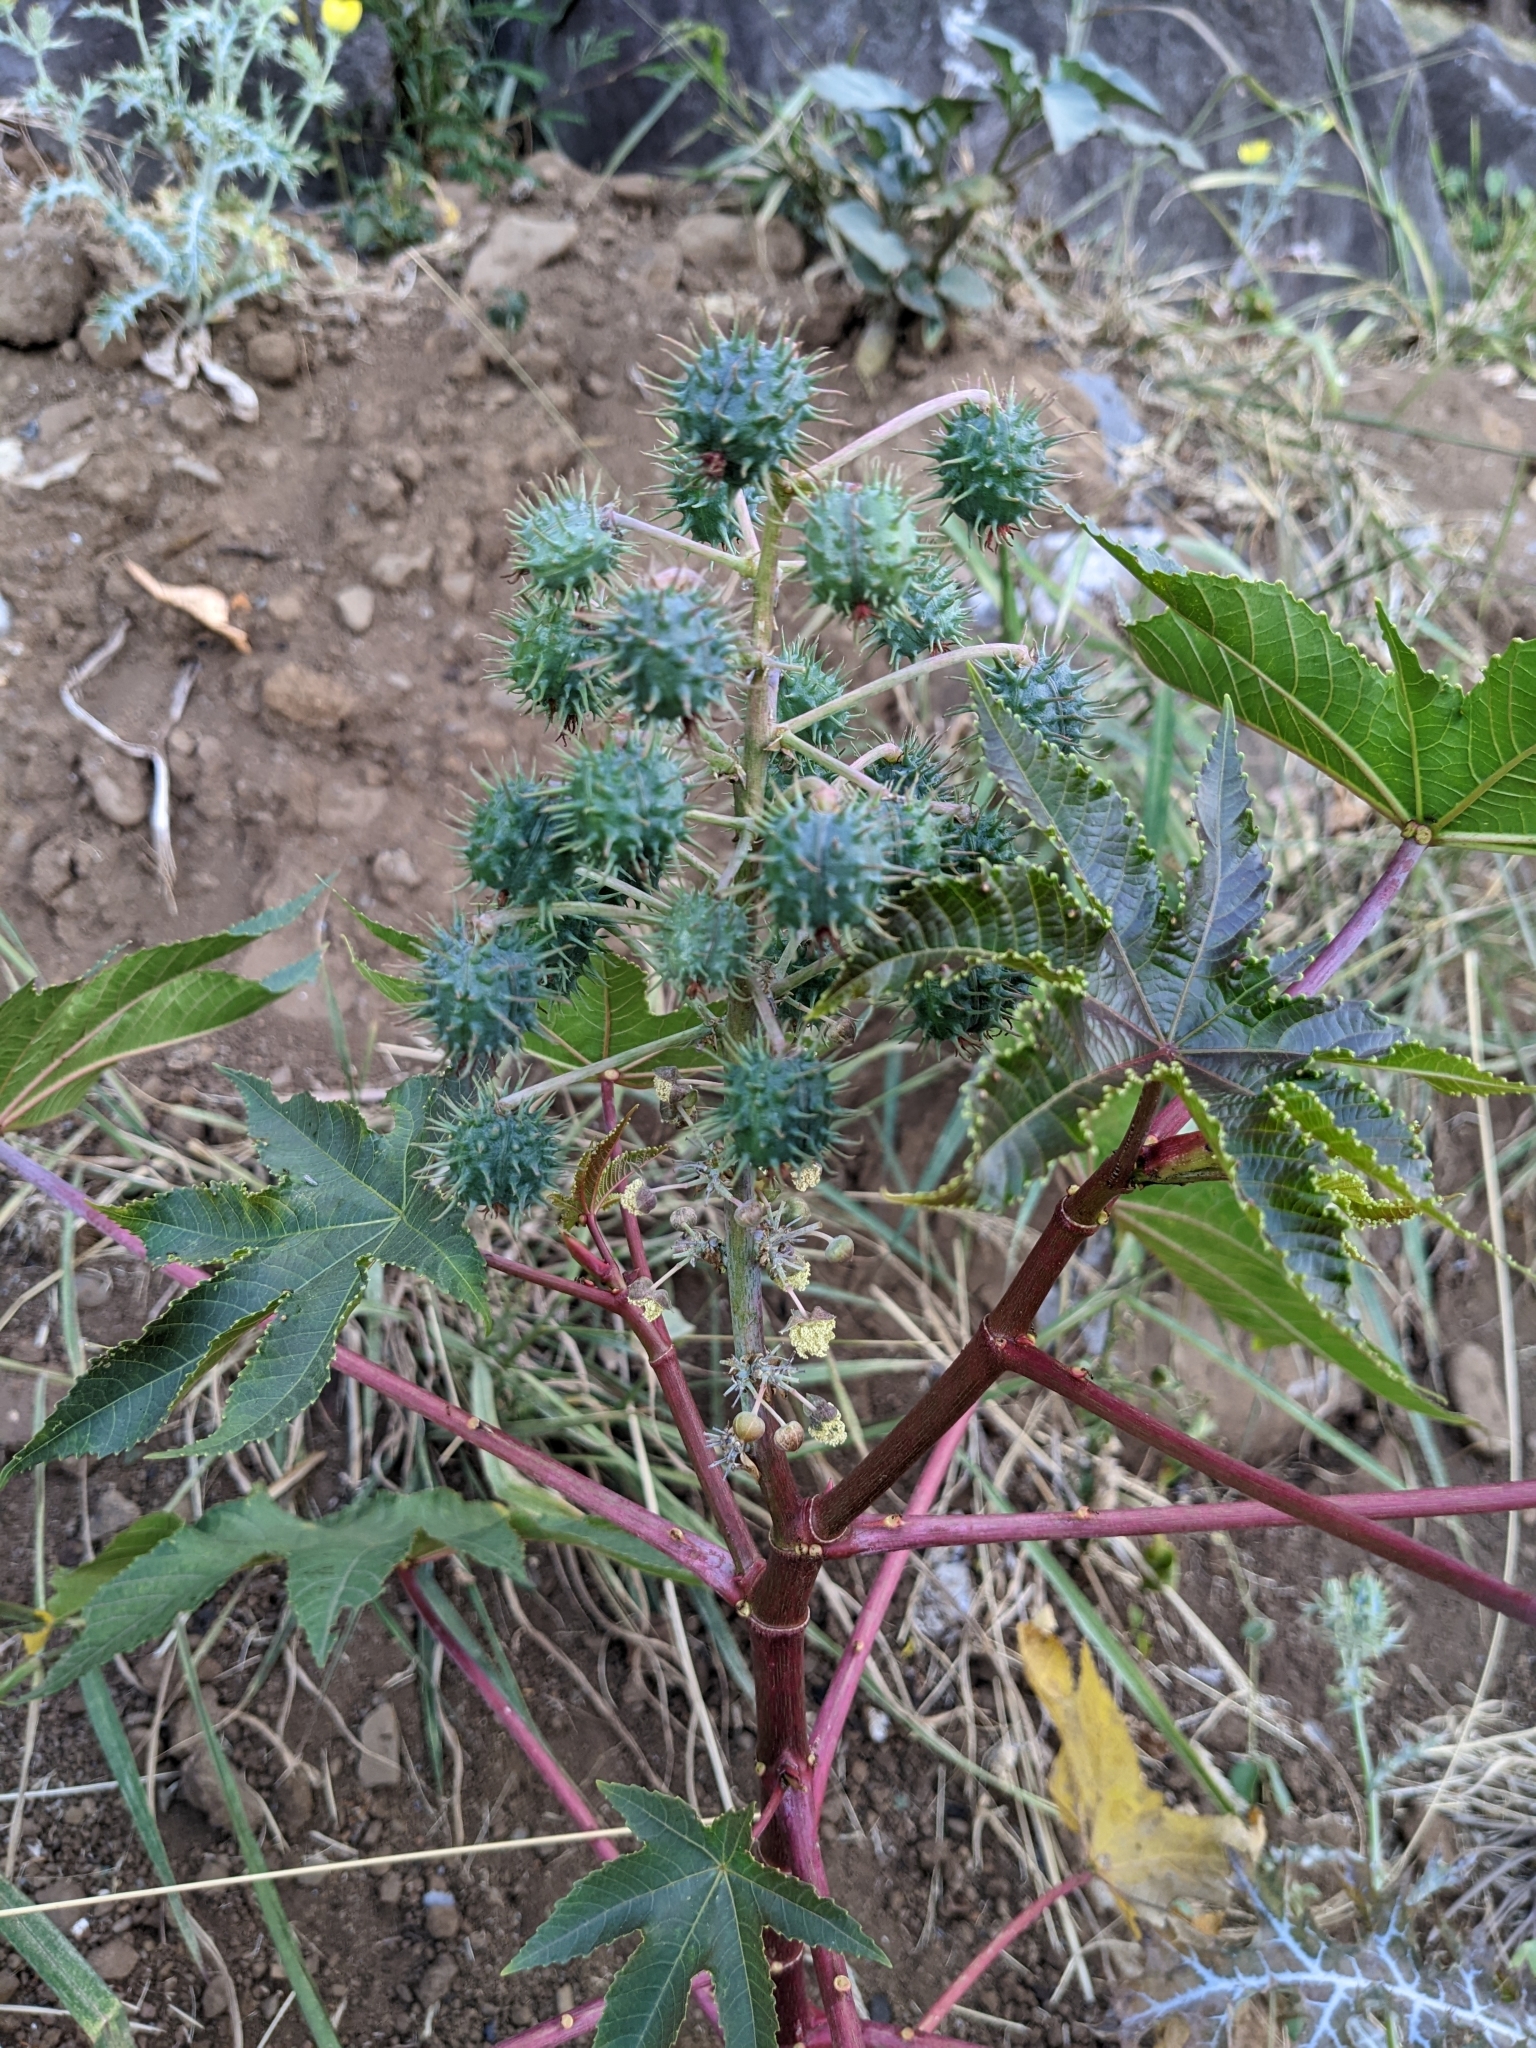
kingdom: Plantae
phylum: Tracheophyta
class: Magnoliopsida
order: Malpighiales
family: Euphorbiaceae
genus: Ricinus
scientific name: Ricinus communis
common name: Castor-oil-plant
